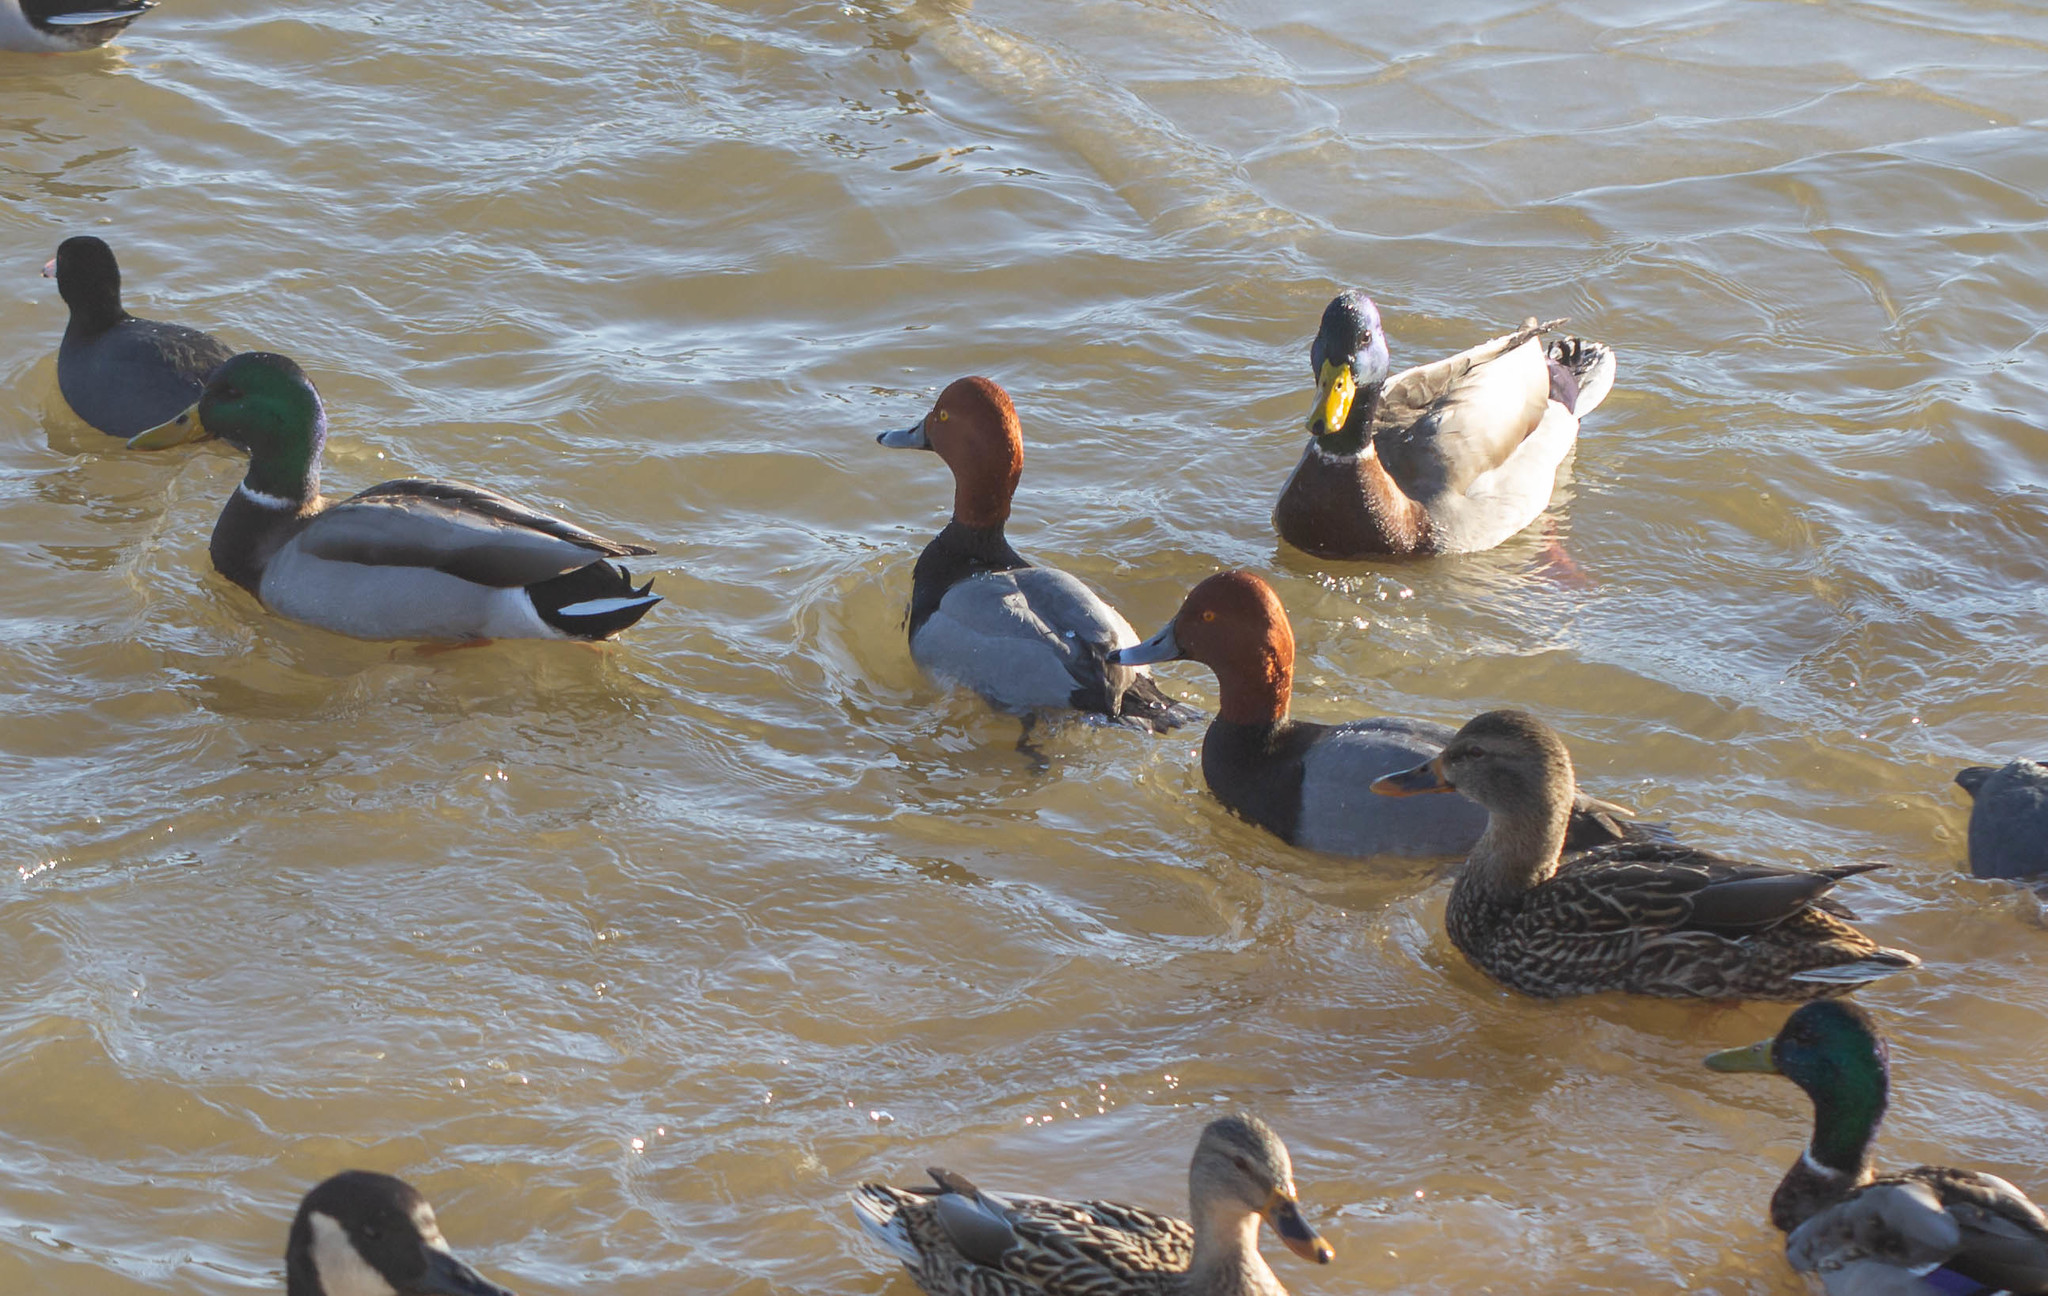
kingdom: Animalia
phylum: Chordata
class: Aves
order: Anseriformes
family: Anatidae
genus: Aythya
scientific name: Aythya americana
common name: Redhead
